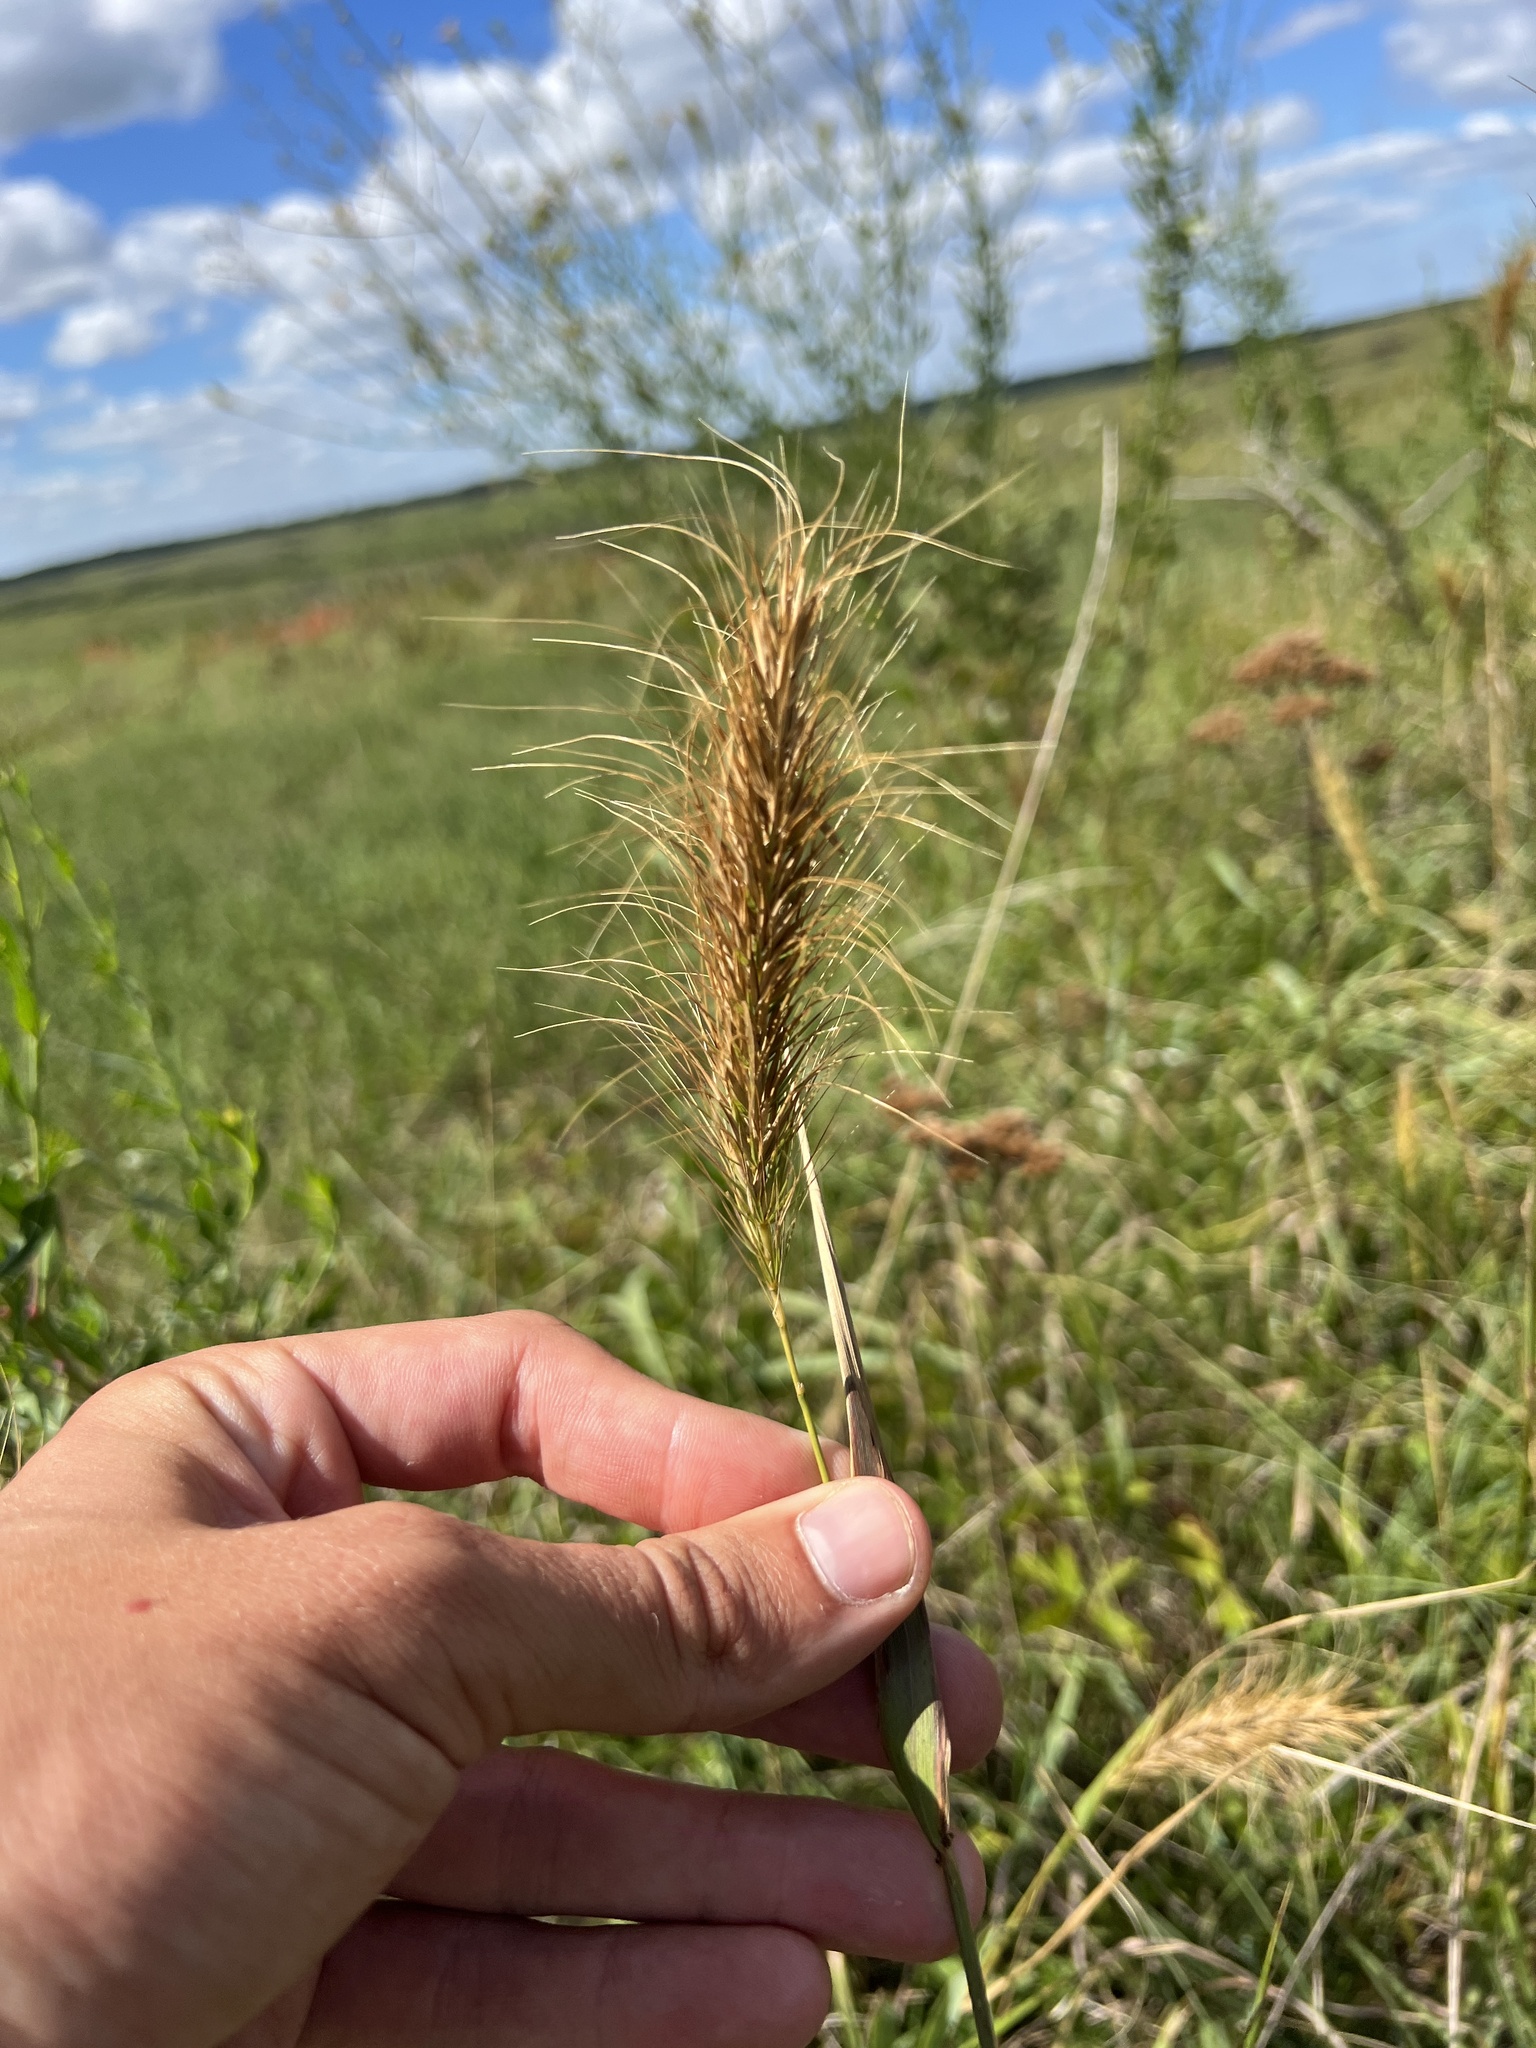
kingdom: Plantae
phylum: Tracheophyta
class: Liliopsida
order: Poales
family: Poaceae
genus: Elymus
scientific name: Elymus canadensis
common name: Canada wild rye
